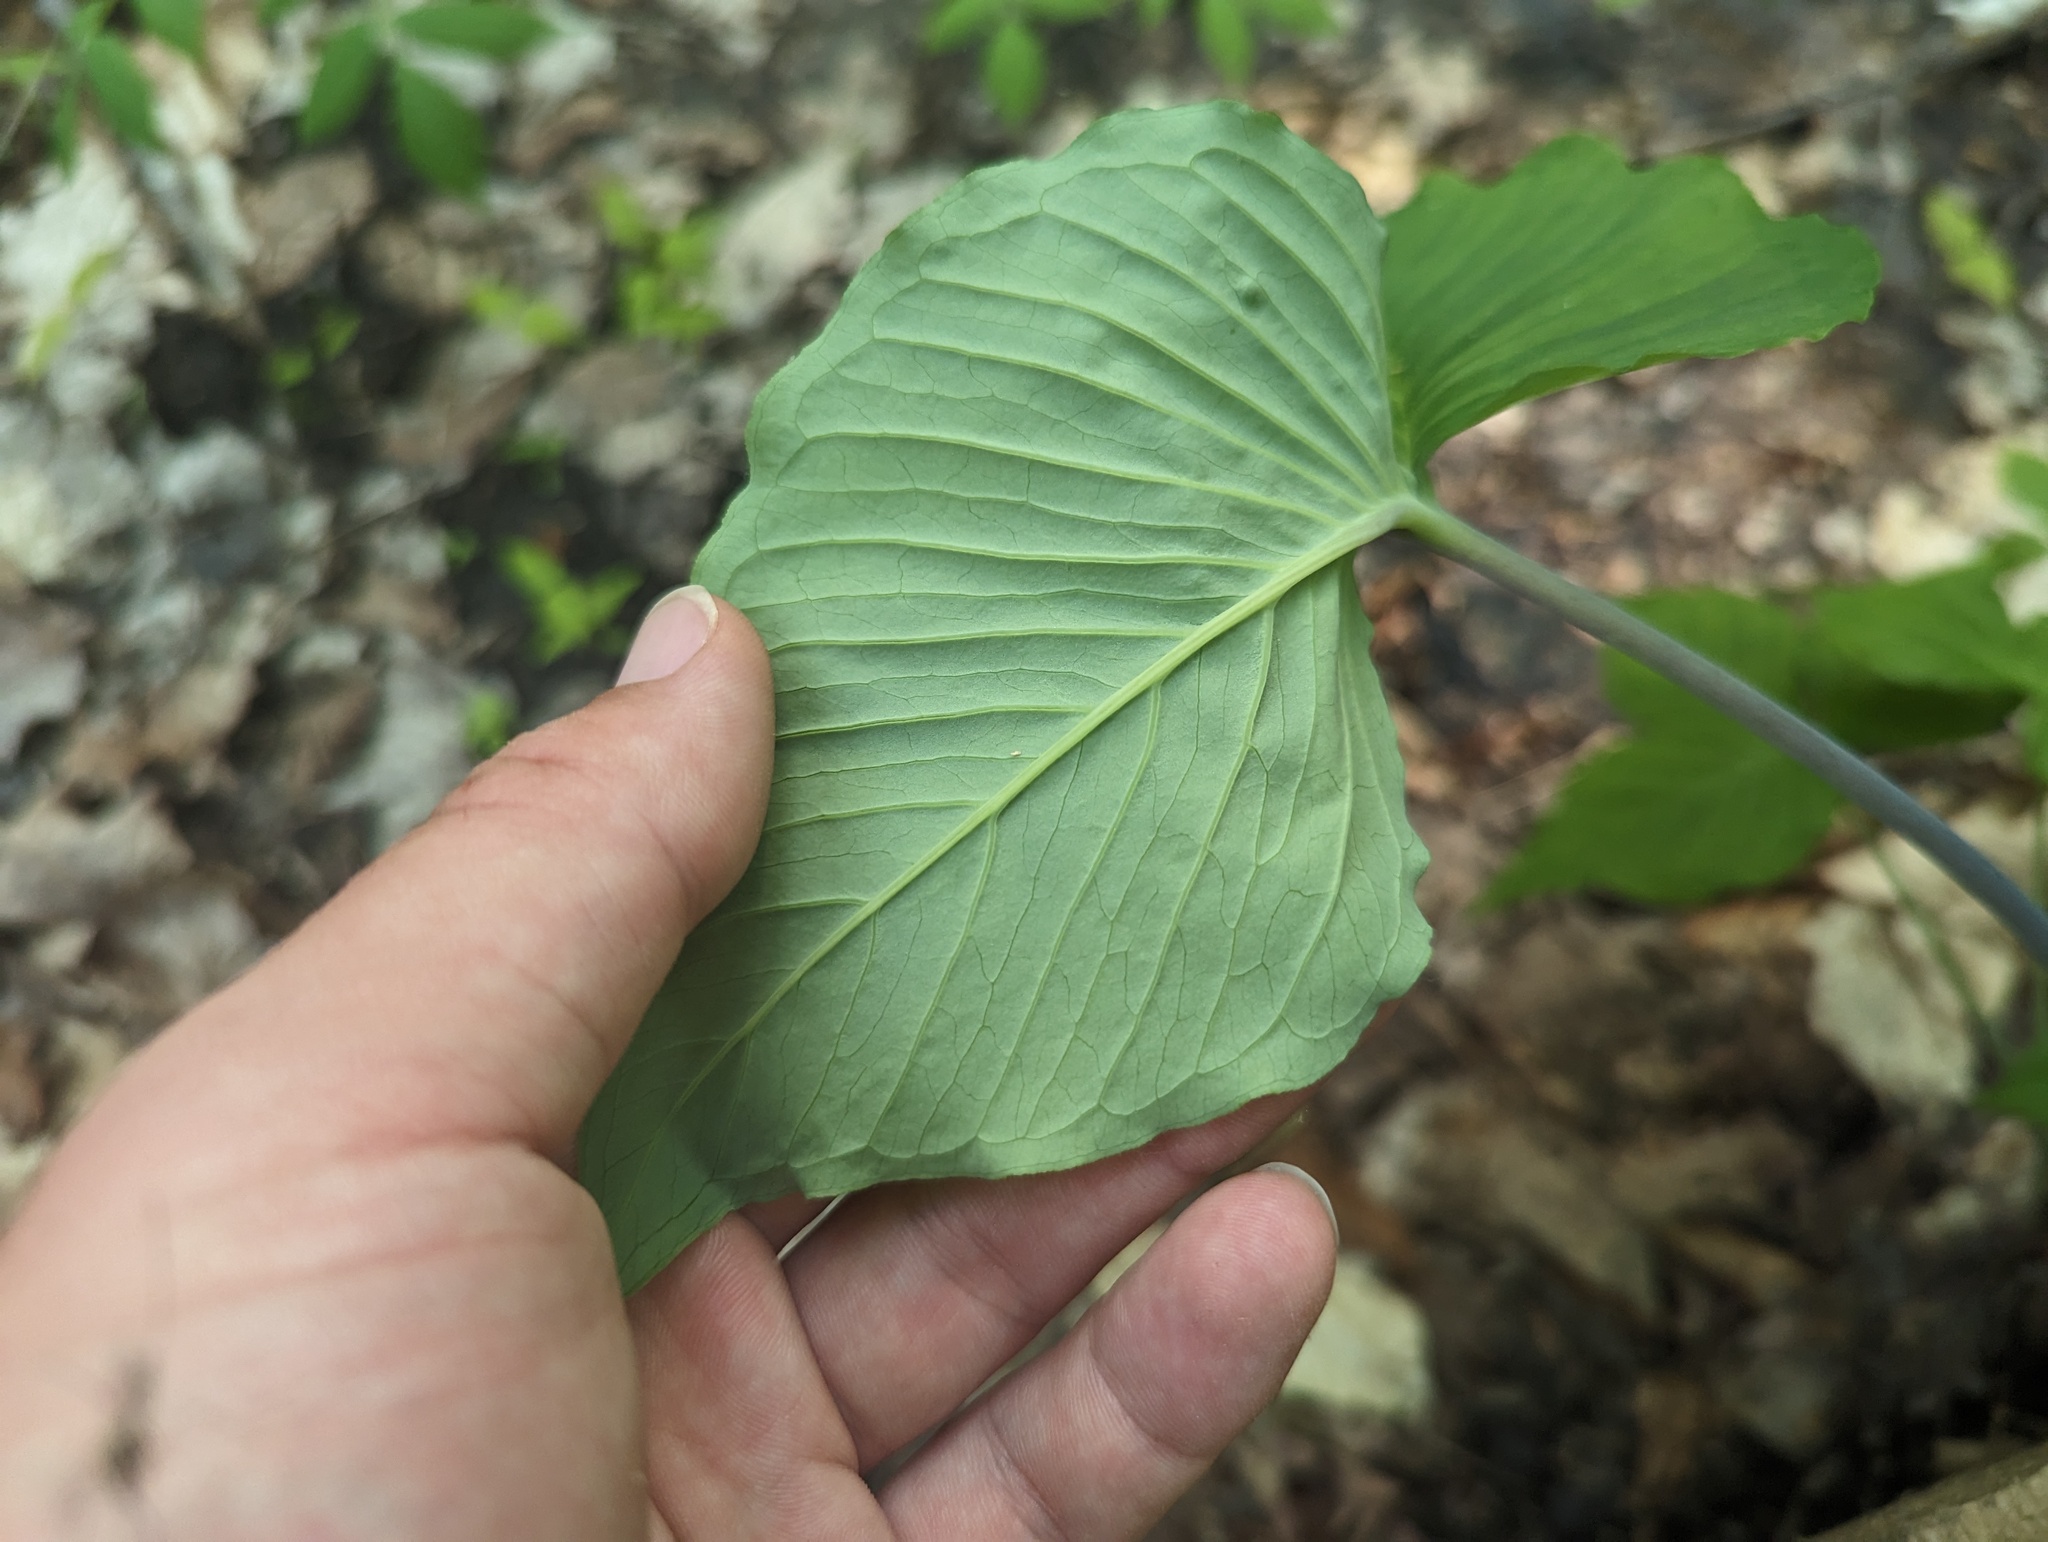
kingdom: Plantae
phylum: Tracheophyta
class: Liliopsida
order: Alismatales
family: Araceae
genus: Arisaema
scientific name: Arisaema pusillum
